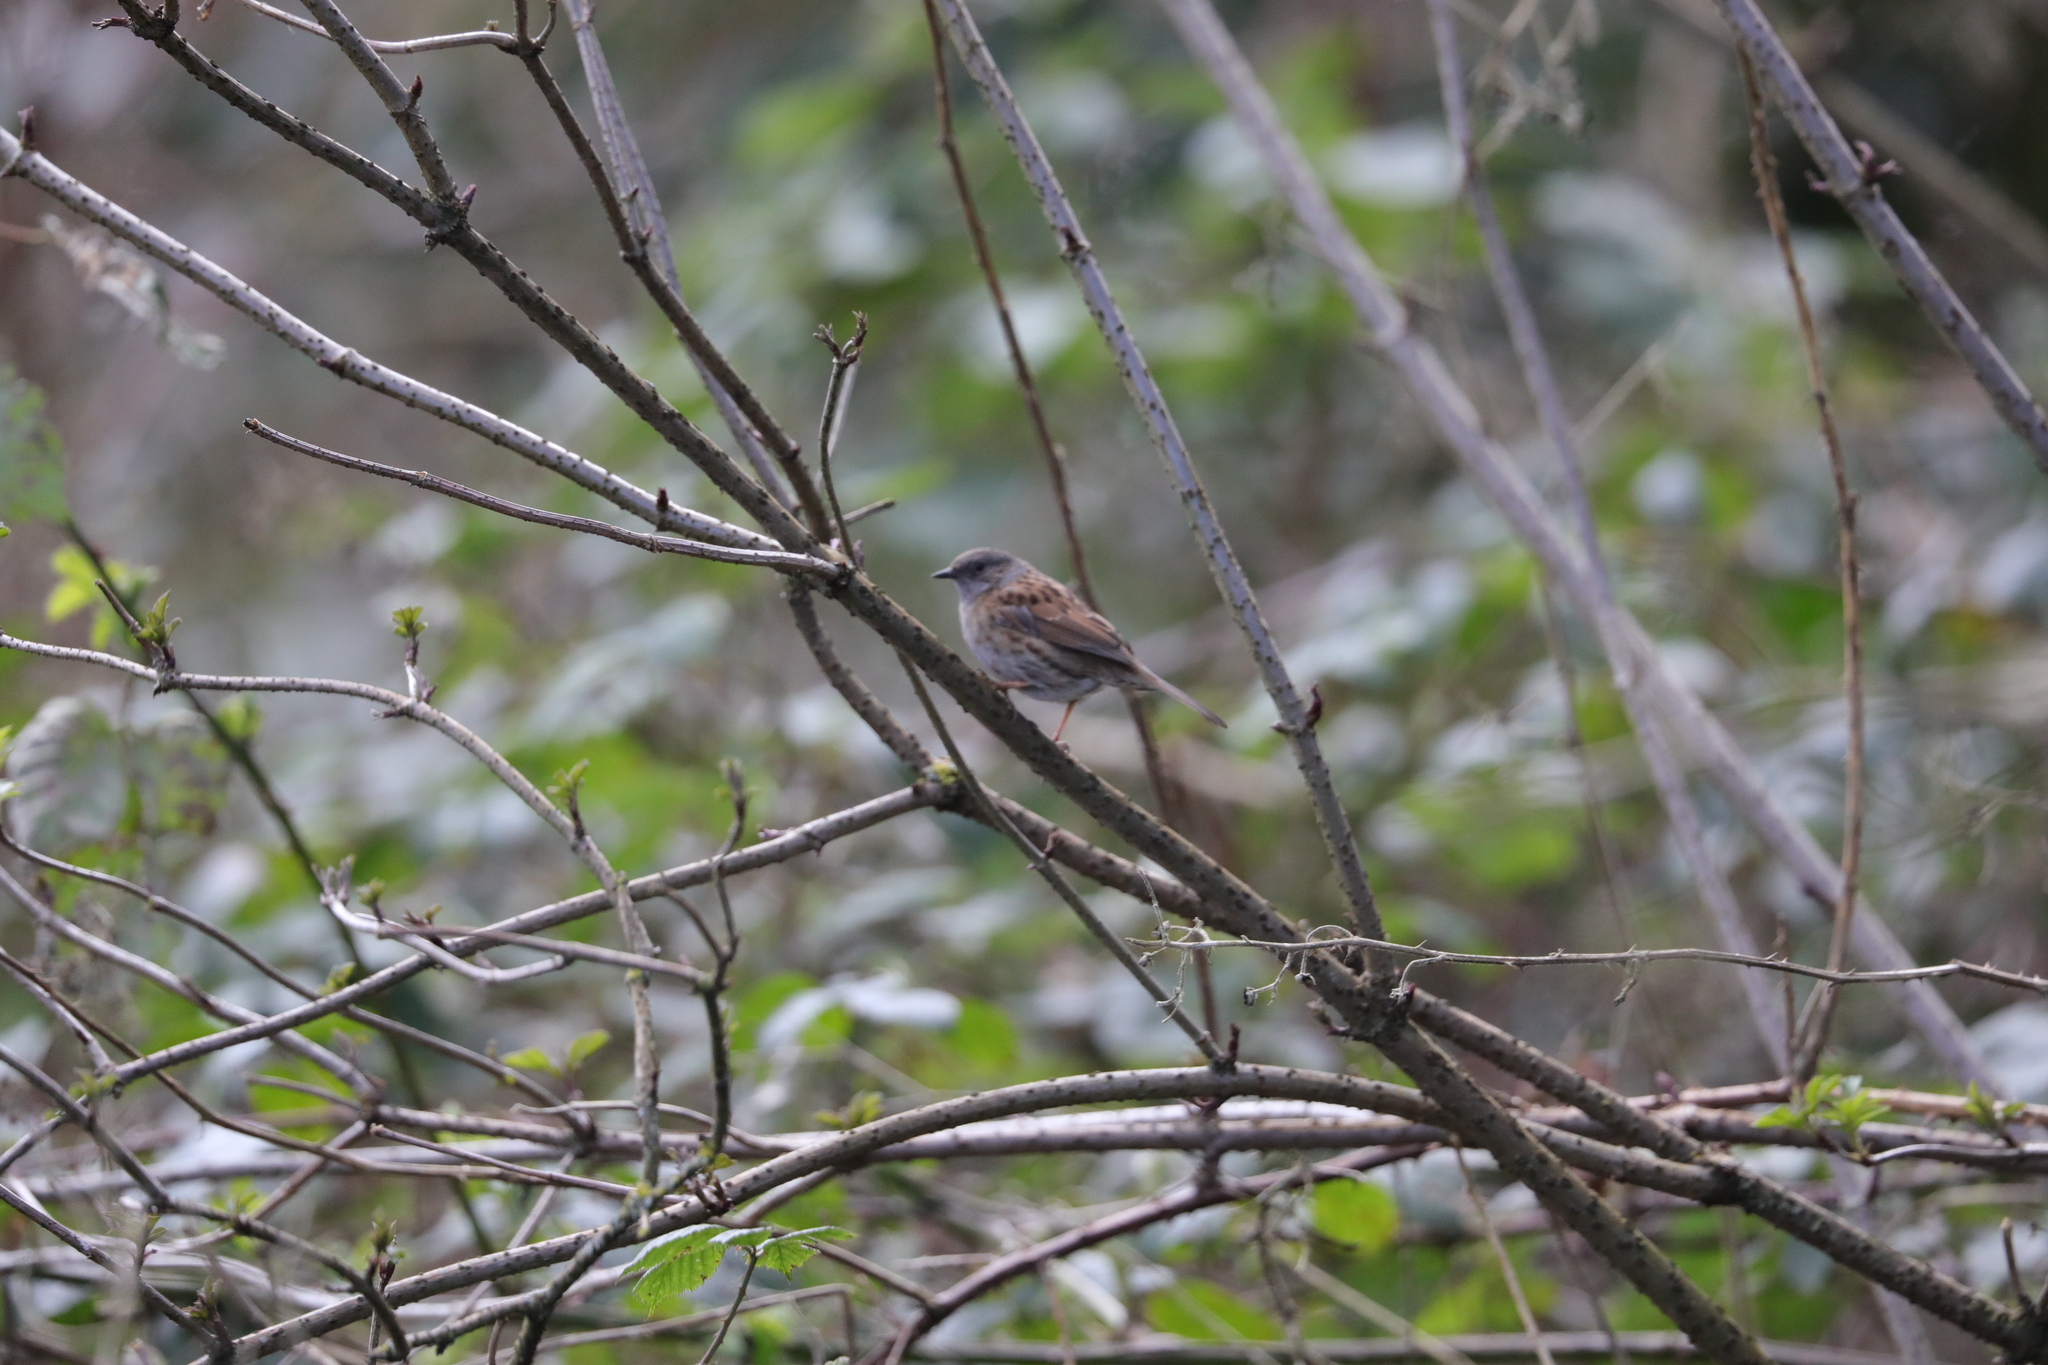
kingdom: Animalia
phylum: Chordata
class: Aves
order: Passeriformes
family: Prunellidae
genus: Prunella
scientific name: Prunella modularis
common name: Dunnock
